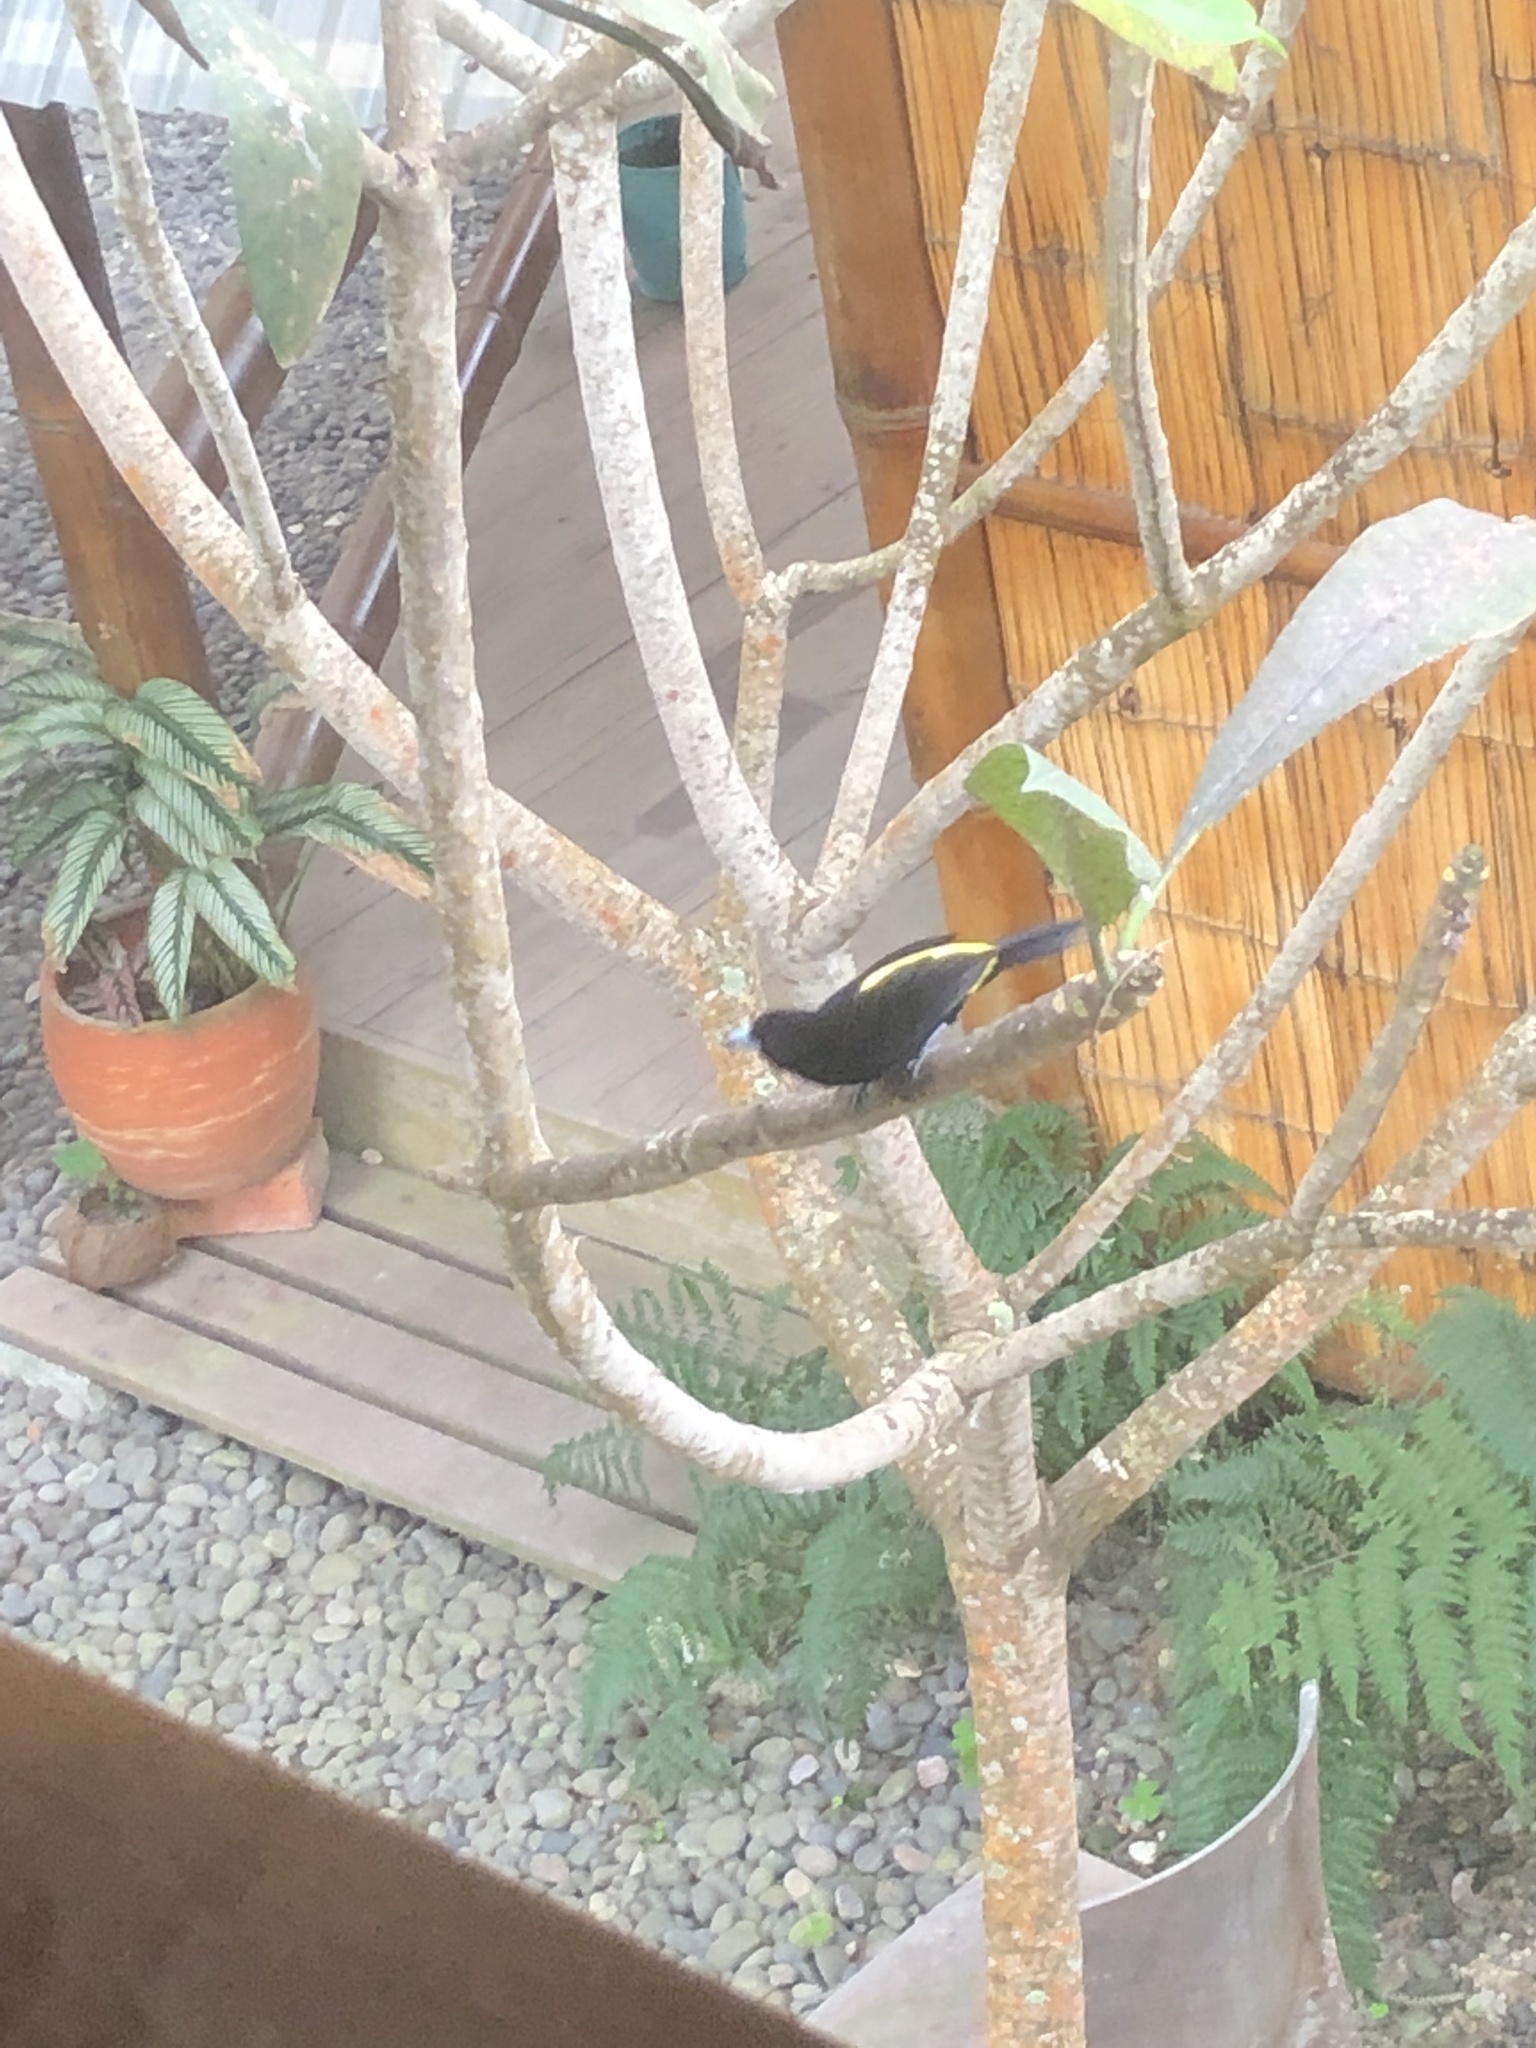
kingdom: Animalia
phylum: Chordata
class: Aves
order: Passeriformes
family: Thraupidae
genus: Ramphocelus
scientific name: Ramphocelus icteronotus
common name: Lemon-rumped tanager
